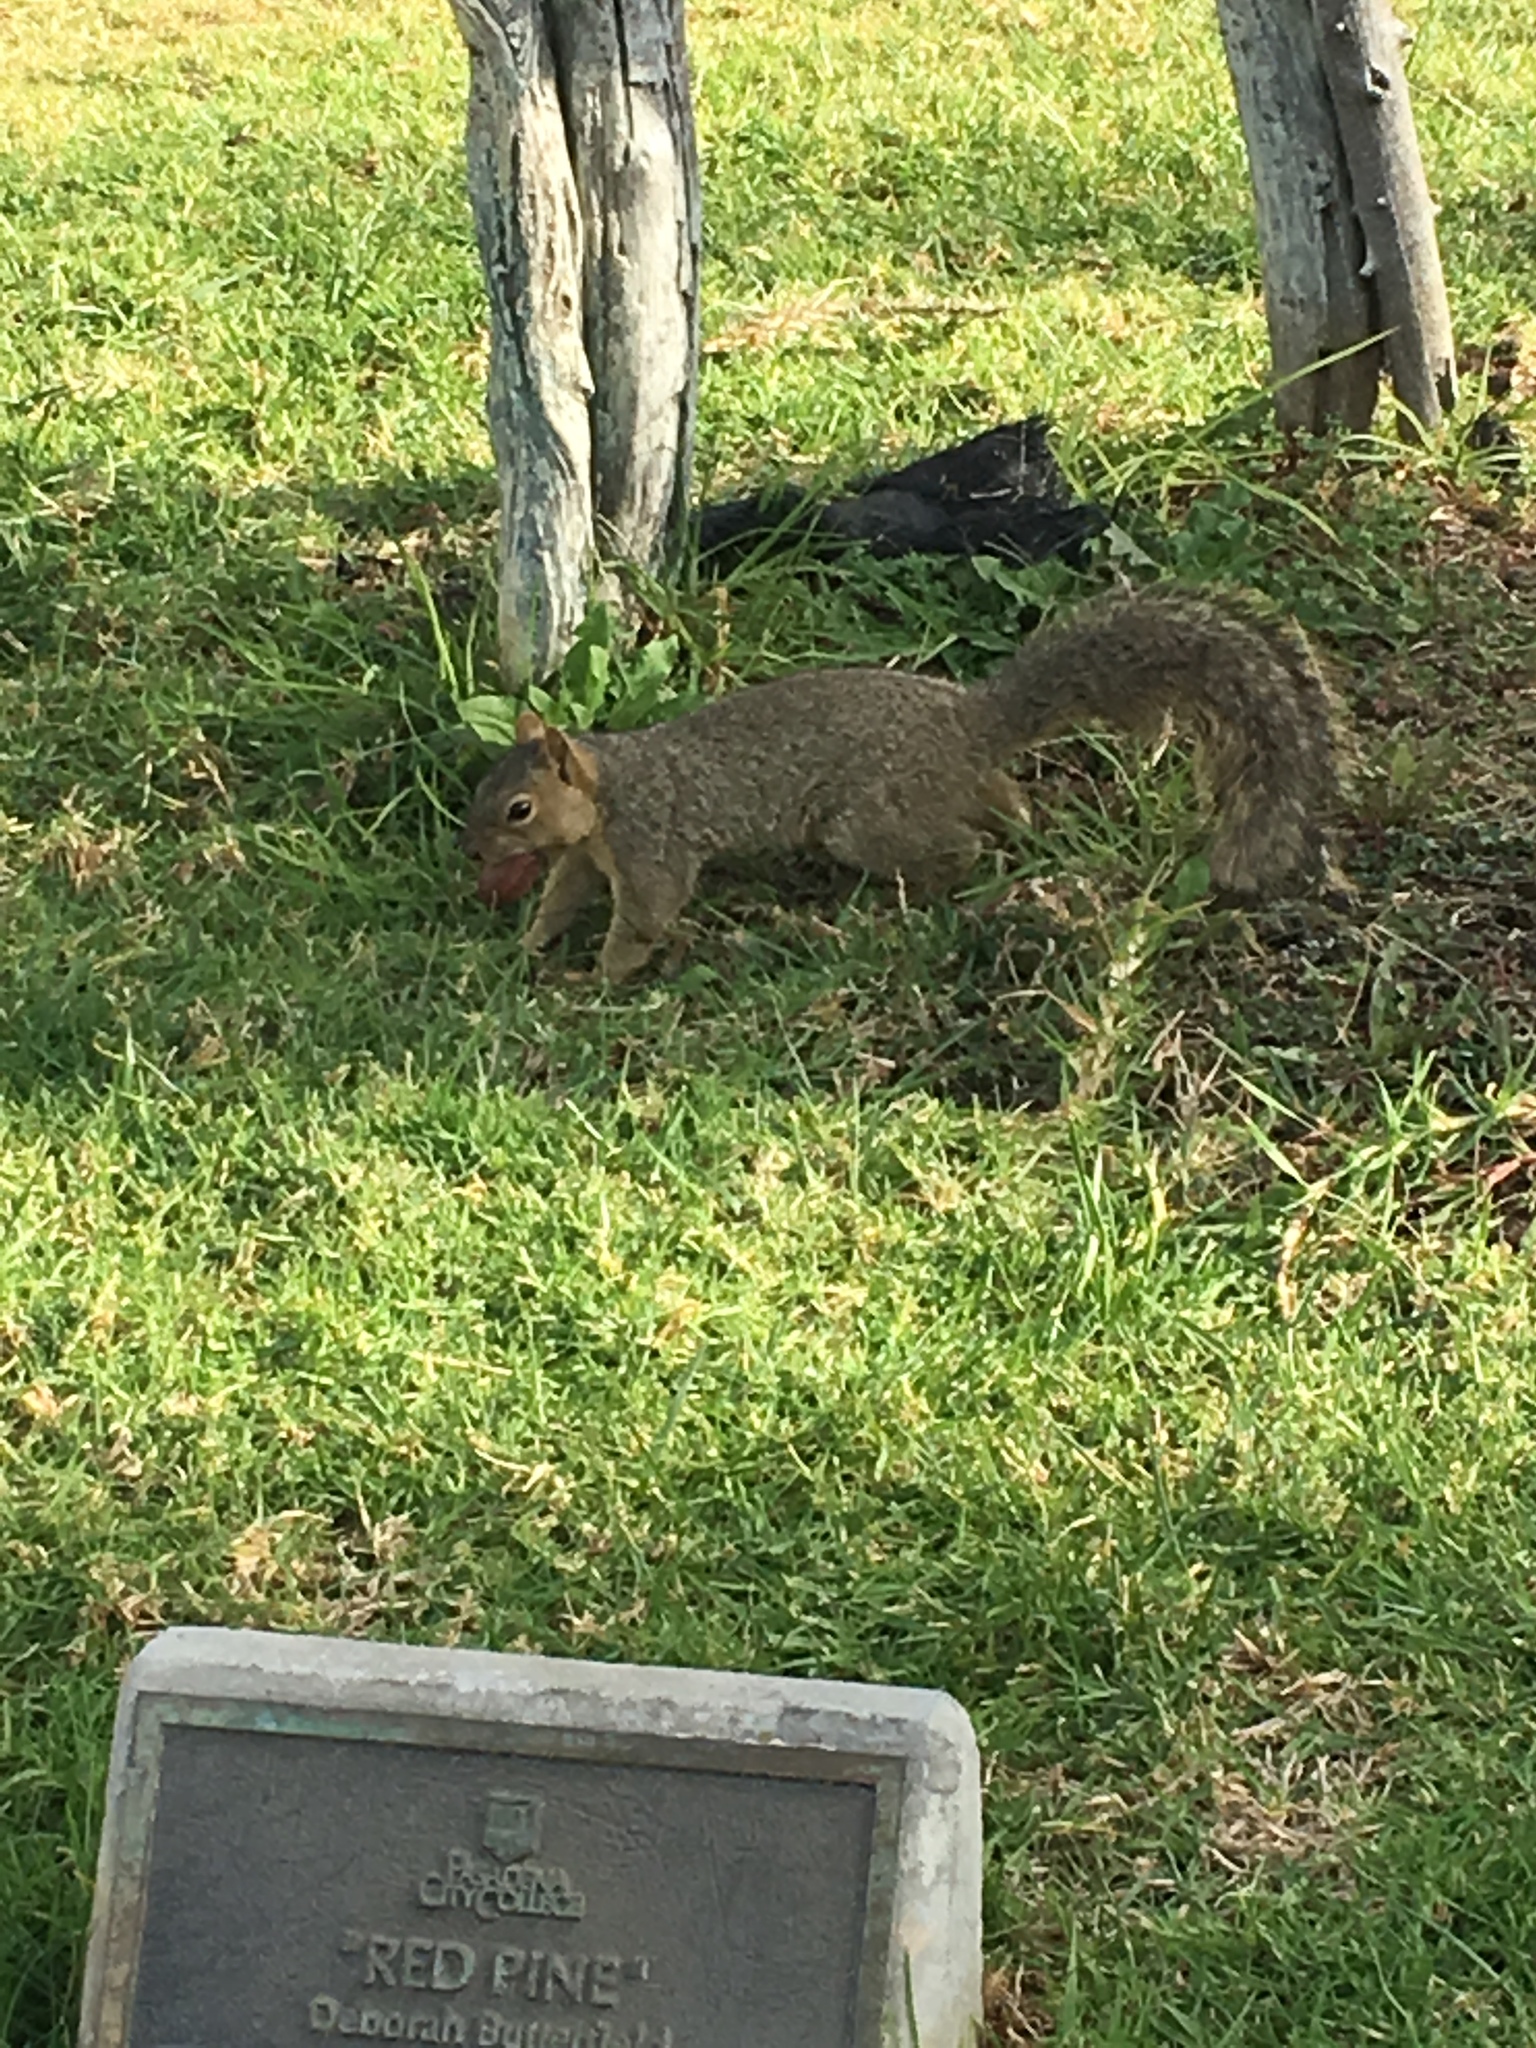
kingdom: Animalia
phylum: Chordata
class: Mammalia
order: Rodentia
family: Sciuridae
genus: Sciurus
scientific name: Sciurus niger
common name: Fox squirrel
